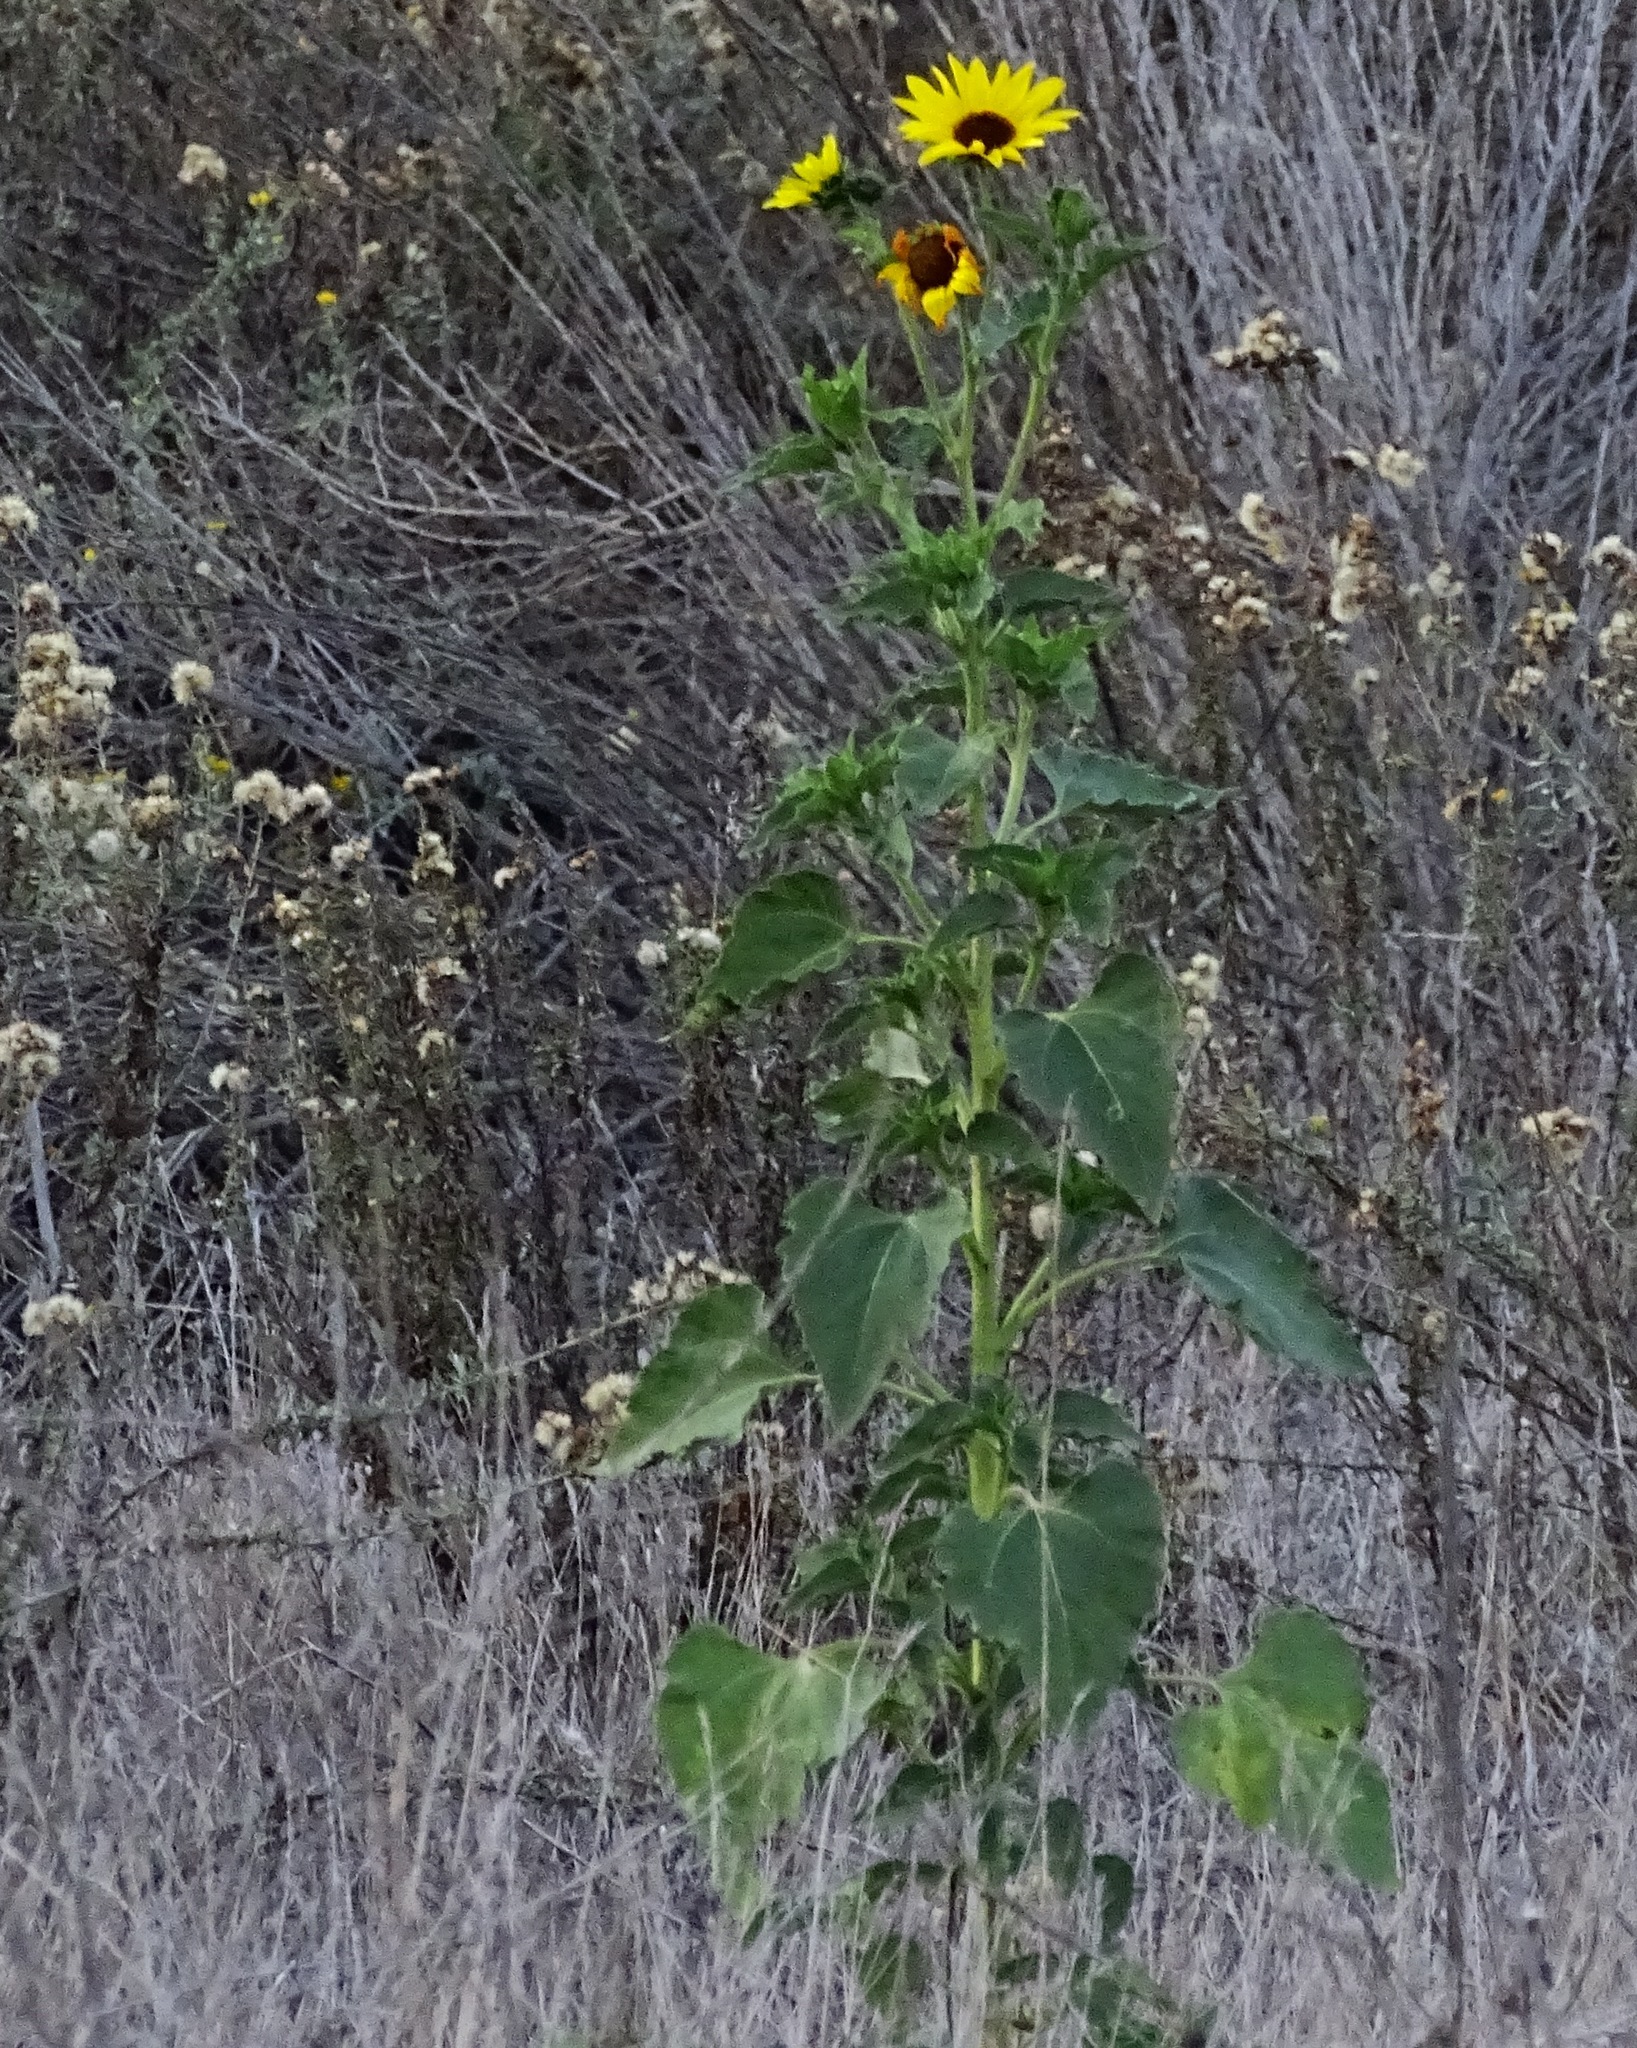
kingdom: Plantae
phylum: Tracheophyta
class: Magnoliopsida
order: Asterales
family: Asteraceae
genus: Helianthus
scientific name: Helianthus annuus
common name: Sunflower
